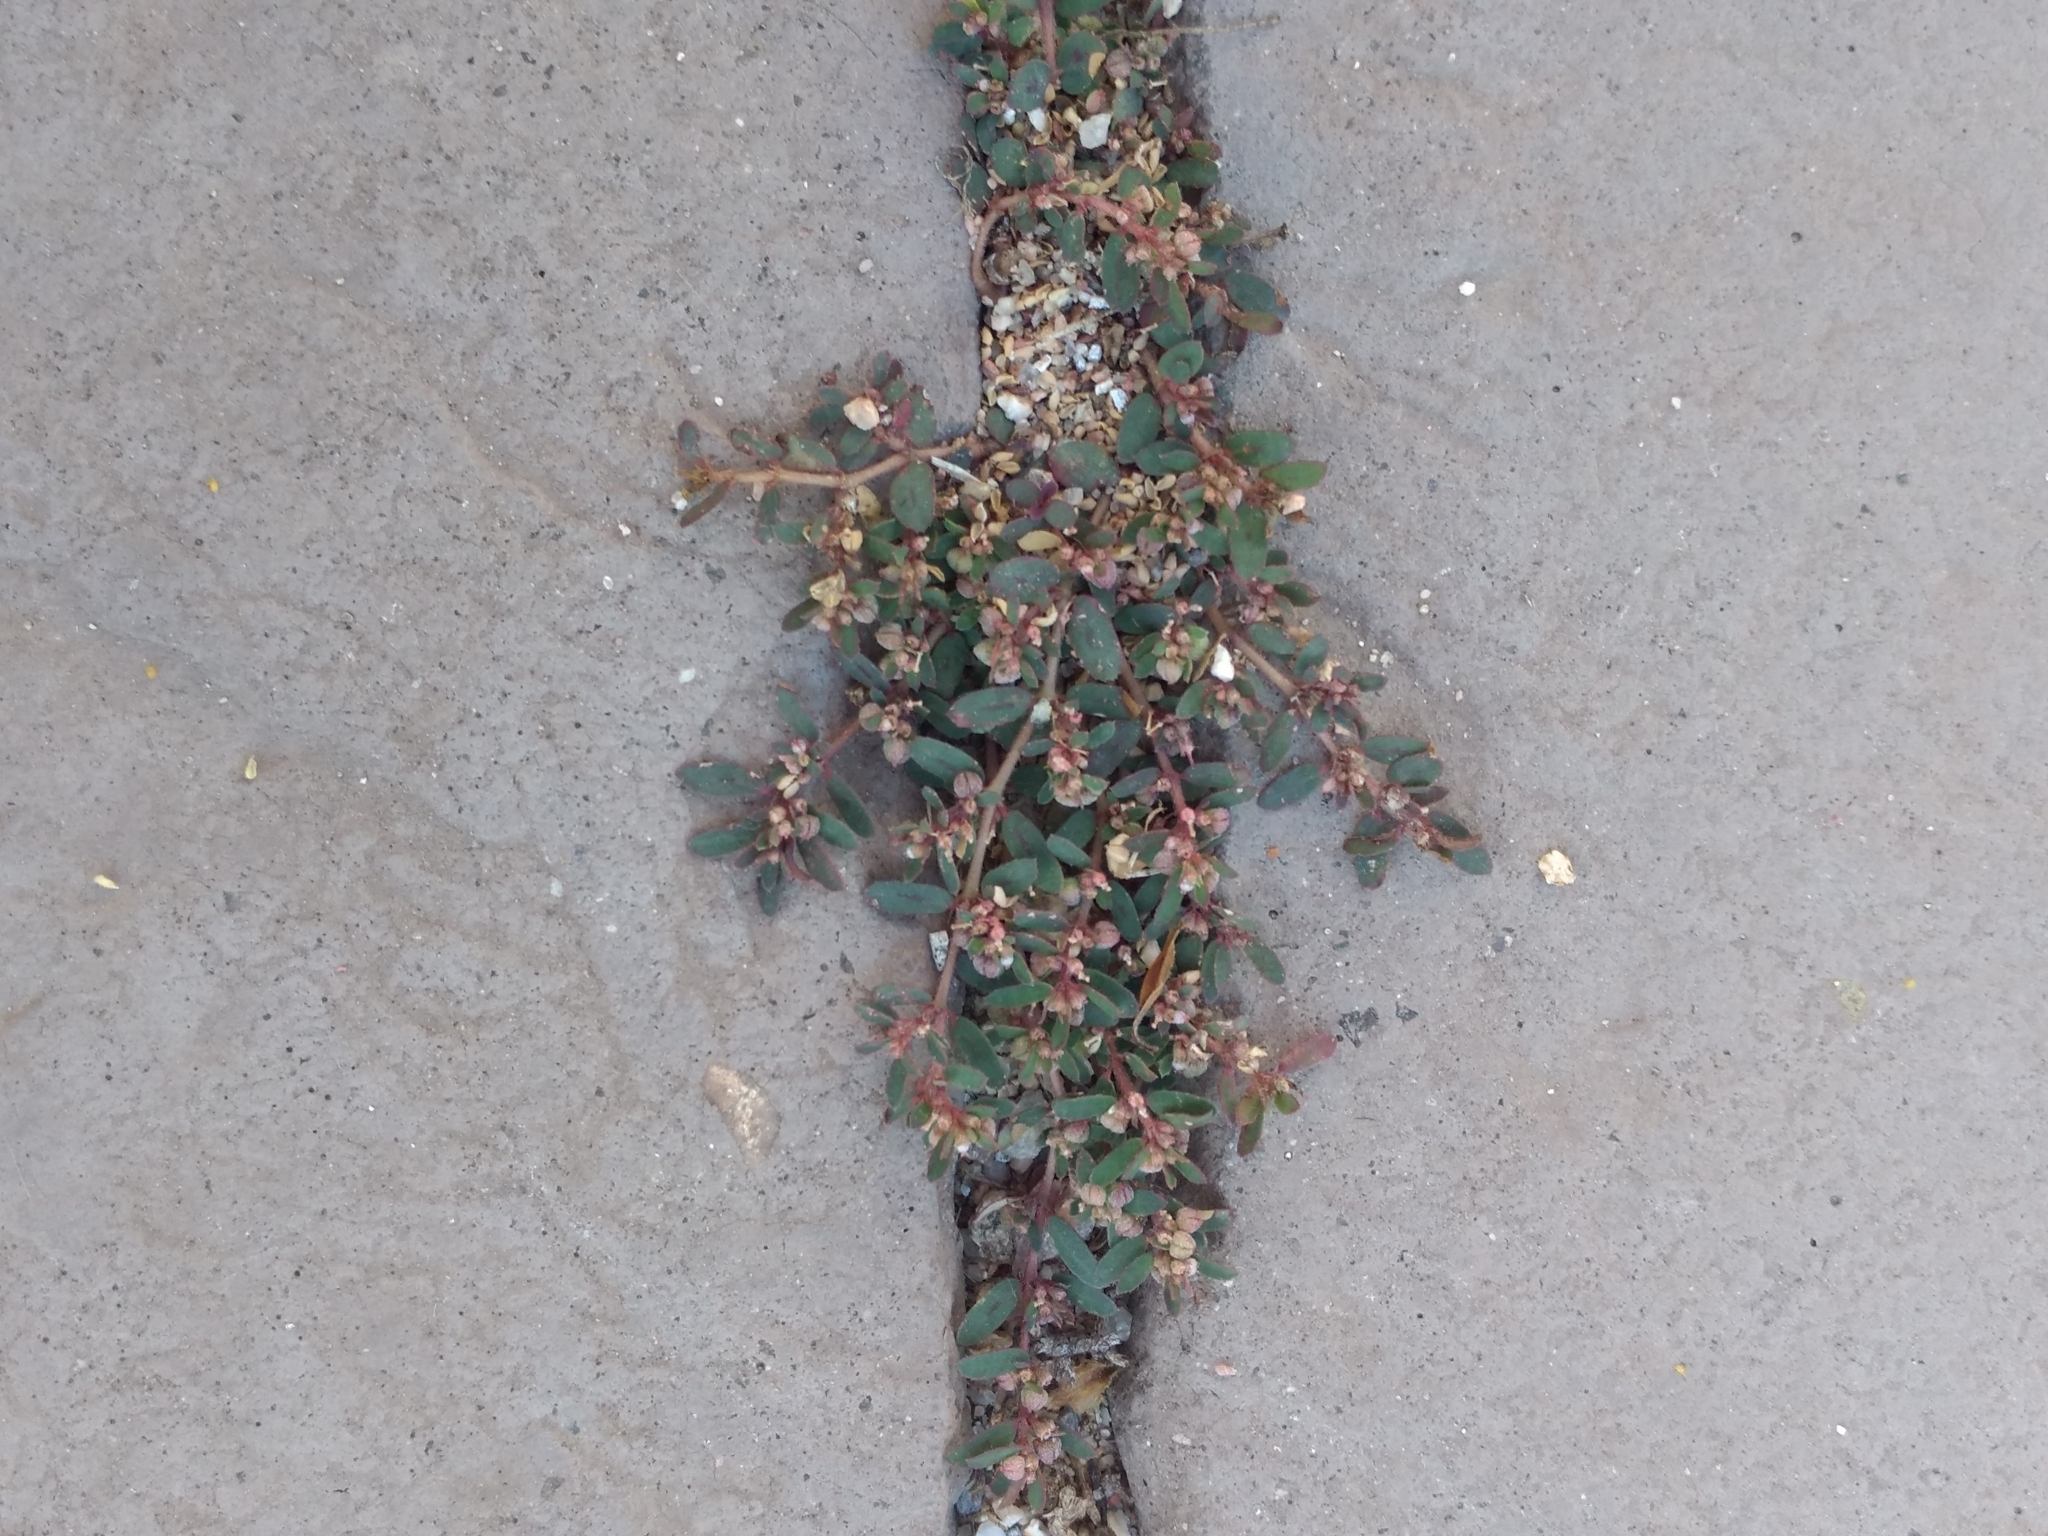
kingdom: Plantae
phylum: Tracheophyta
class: Magnoliopsida
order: Malpighiales
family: Euphorbiaceae
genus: Euphorbia
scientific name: Euphorbia maculata
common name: Spotted spurge
